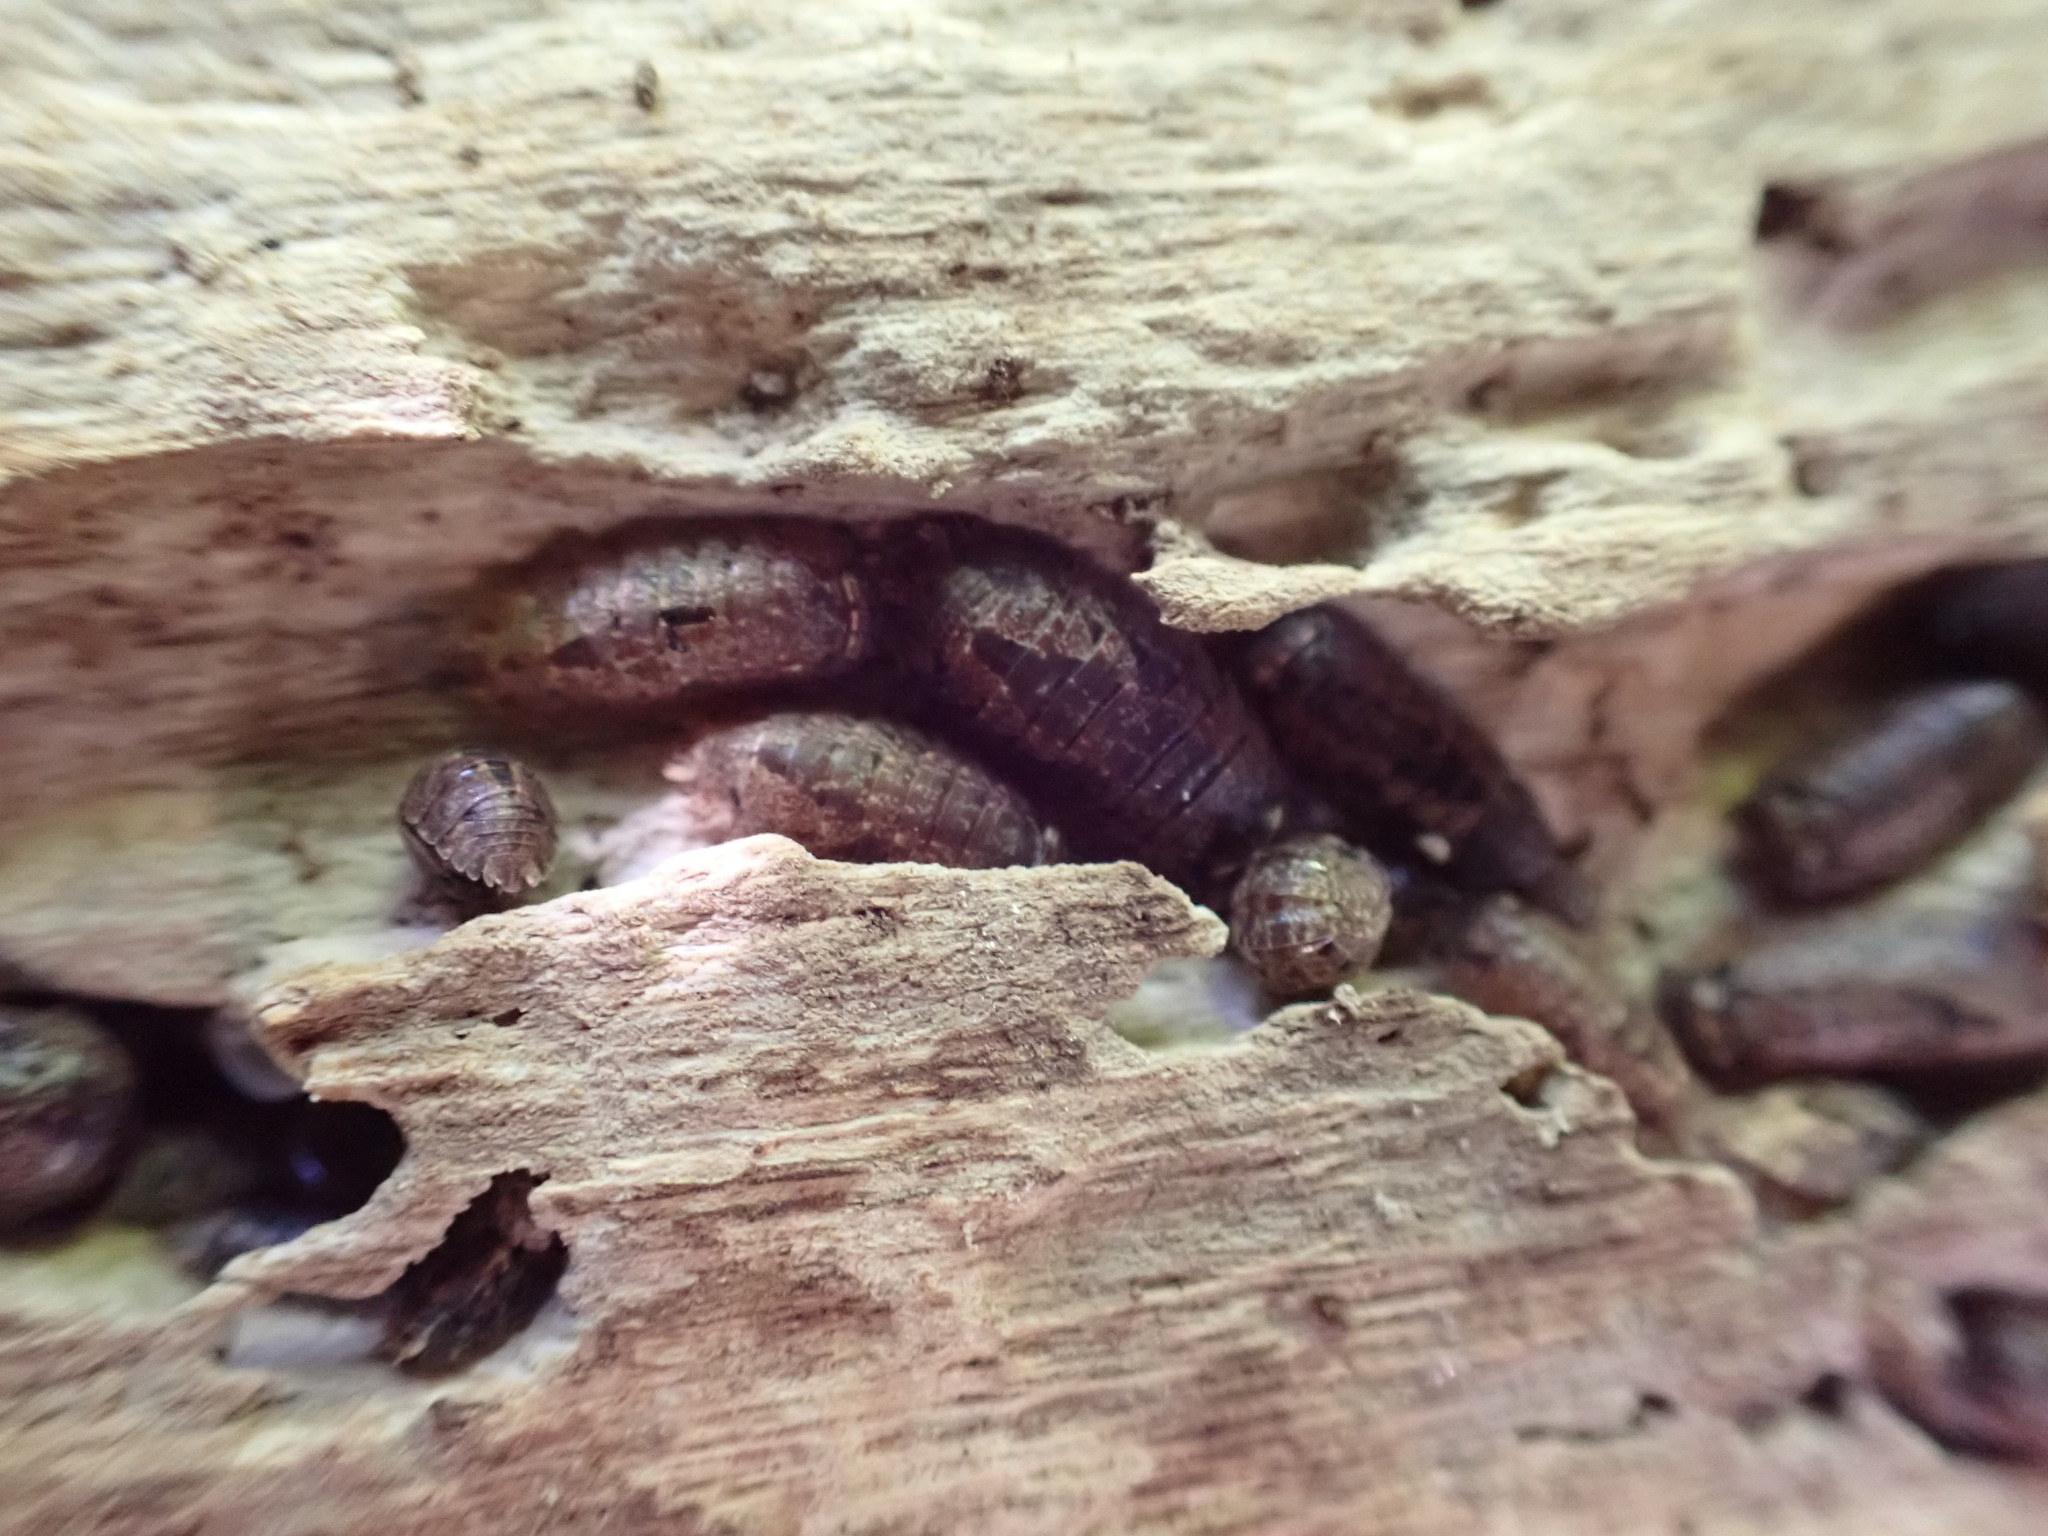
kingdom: Animalia
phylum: Arthropoda
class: Malacostraca
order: Isopoda
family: Porcellionidae
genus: Porcellio
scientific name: Porcellio scaber
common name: Common rough woodlouse
